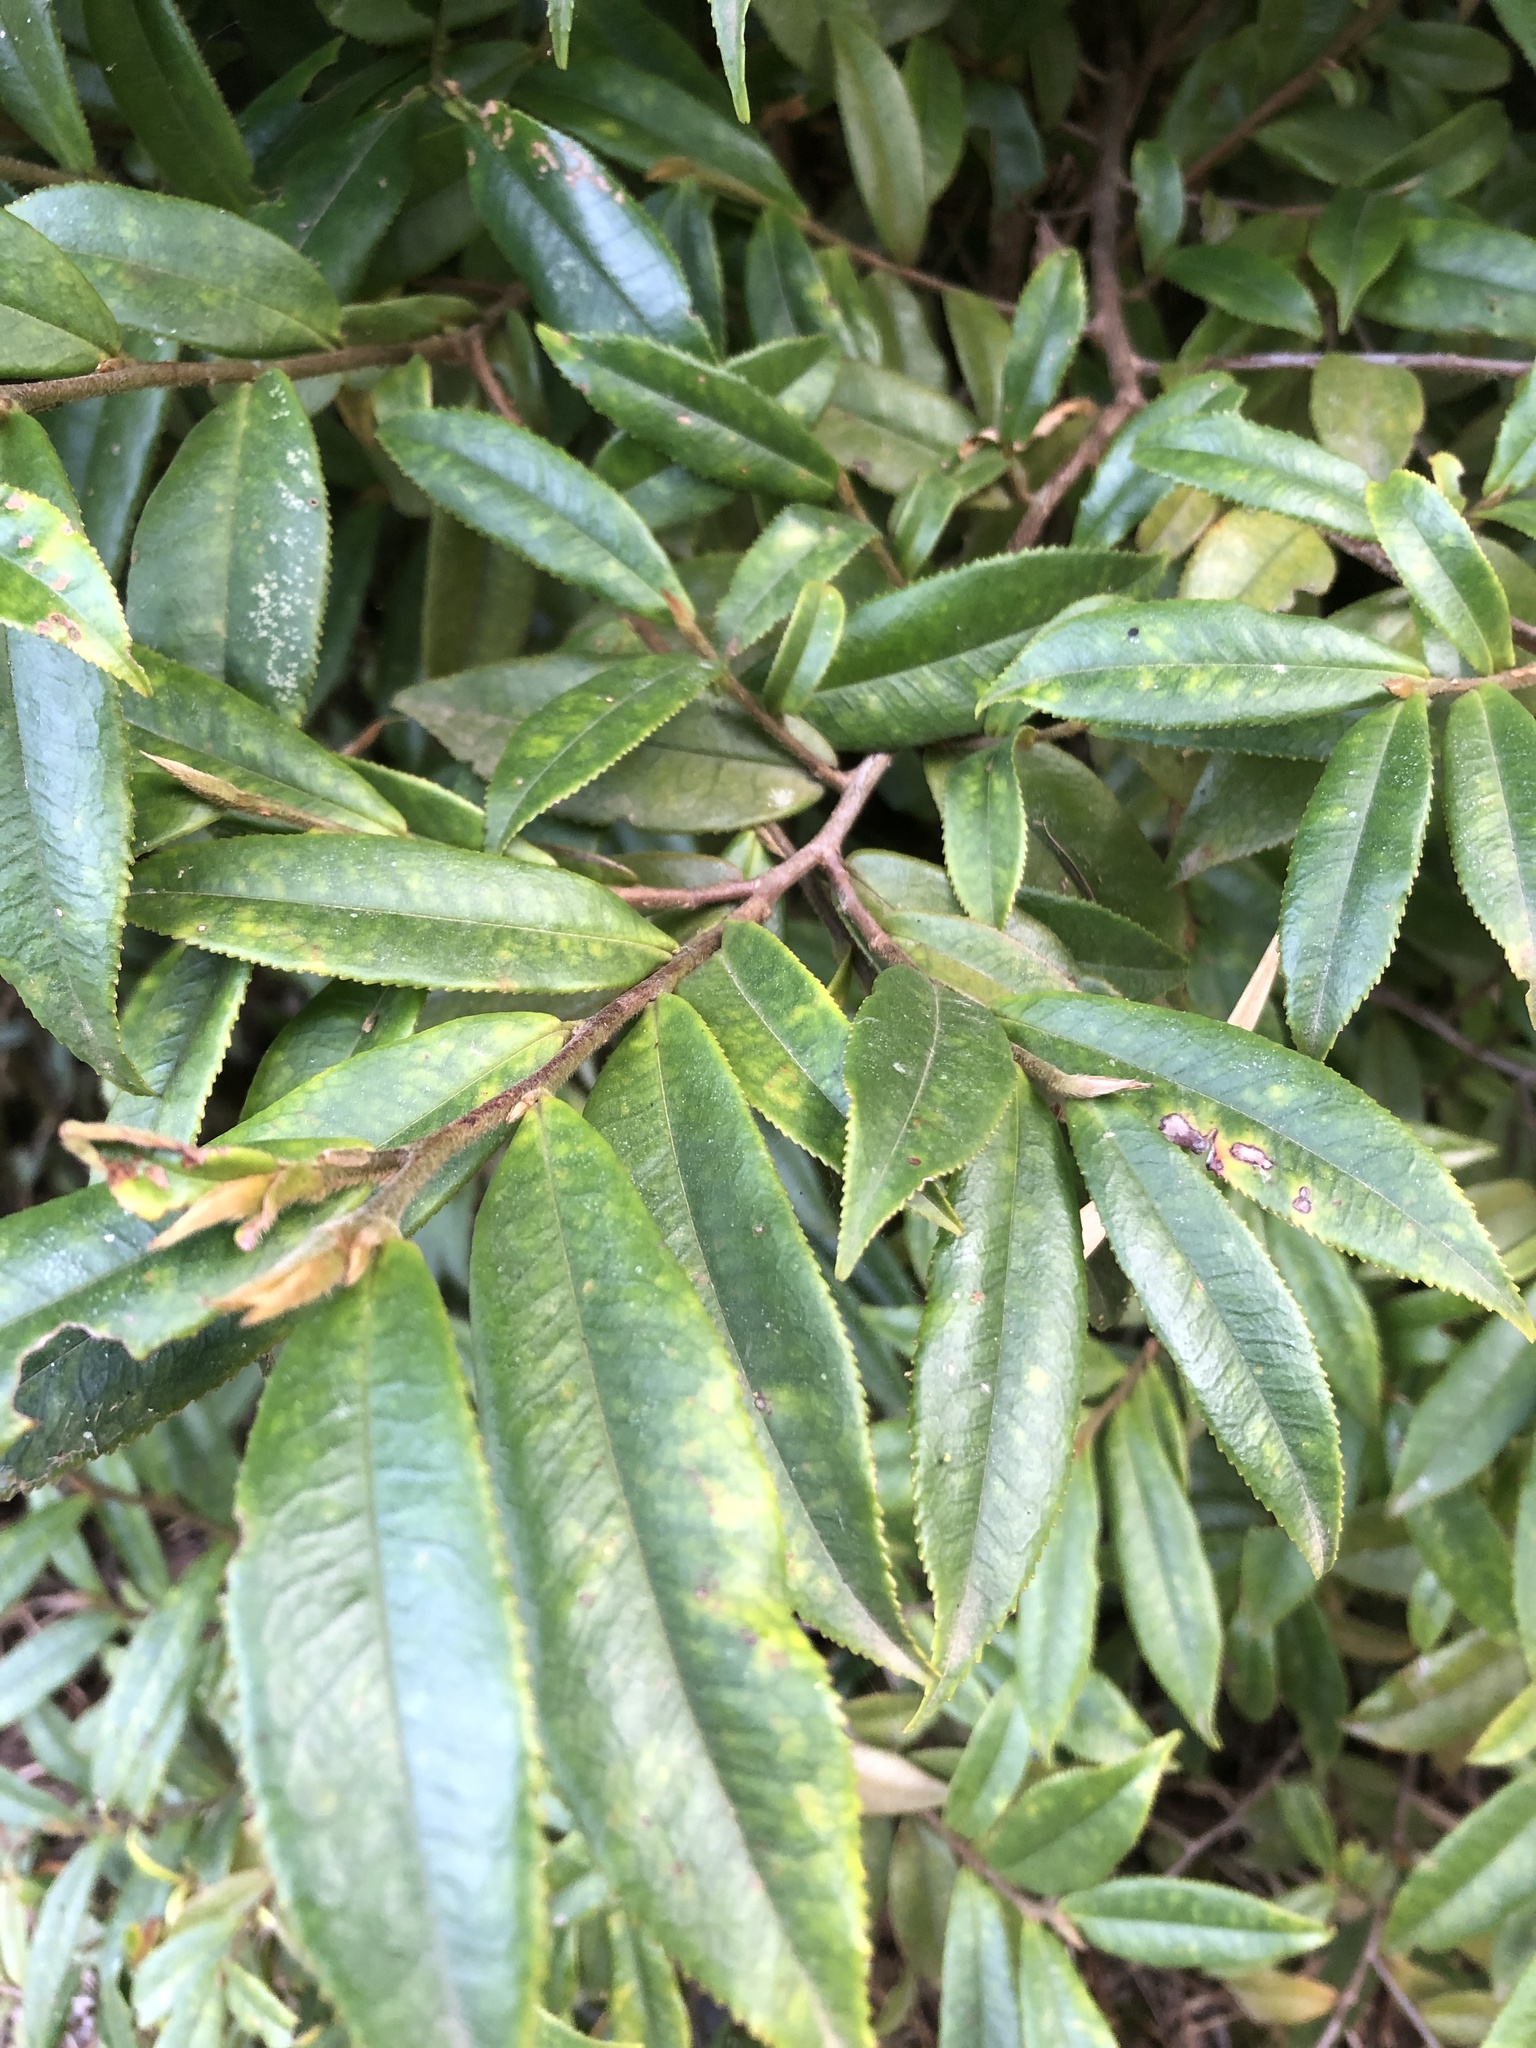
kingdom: Plantae
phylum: Tracheophyta
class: Magnoliopsida
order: Ericales
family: Pentaphylacaceae
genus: Eurya
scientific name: Eurya strigillosa
